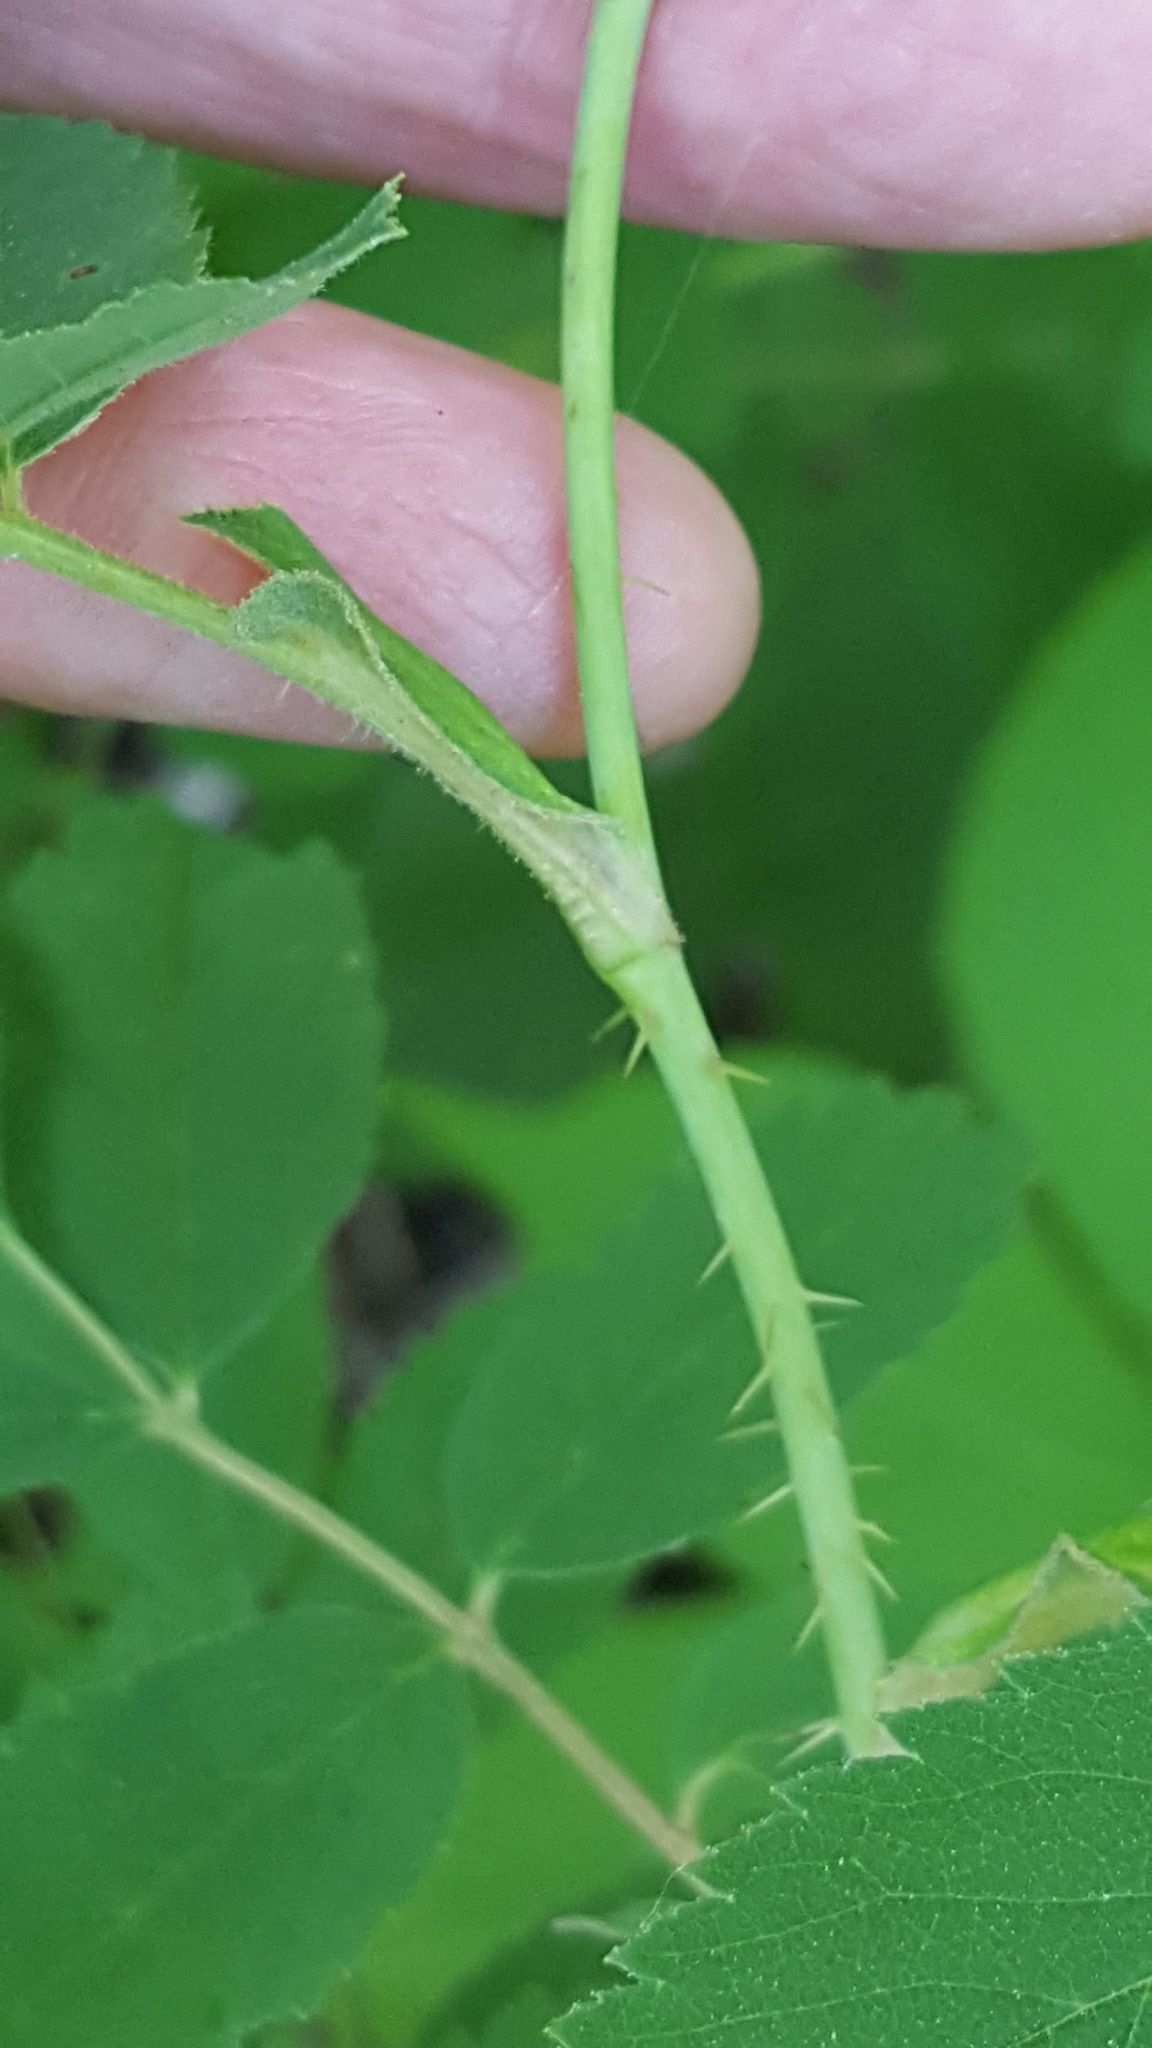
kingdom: Plantae
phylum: Tracheophyta
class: Magnoliopsida
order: Rosales
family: Rosaceae
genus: Rosa
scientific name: Rosa acicularis
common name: Prickly rose
